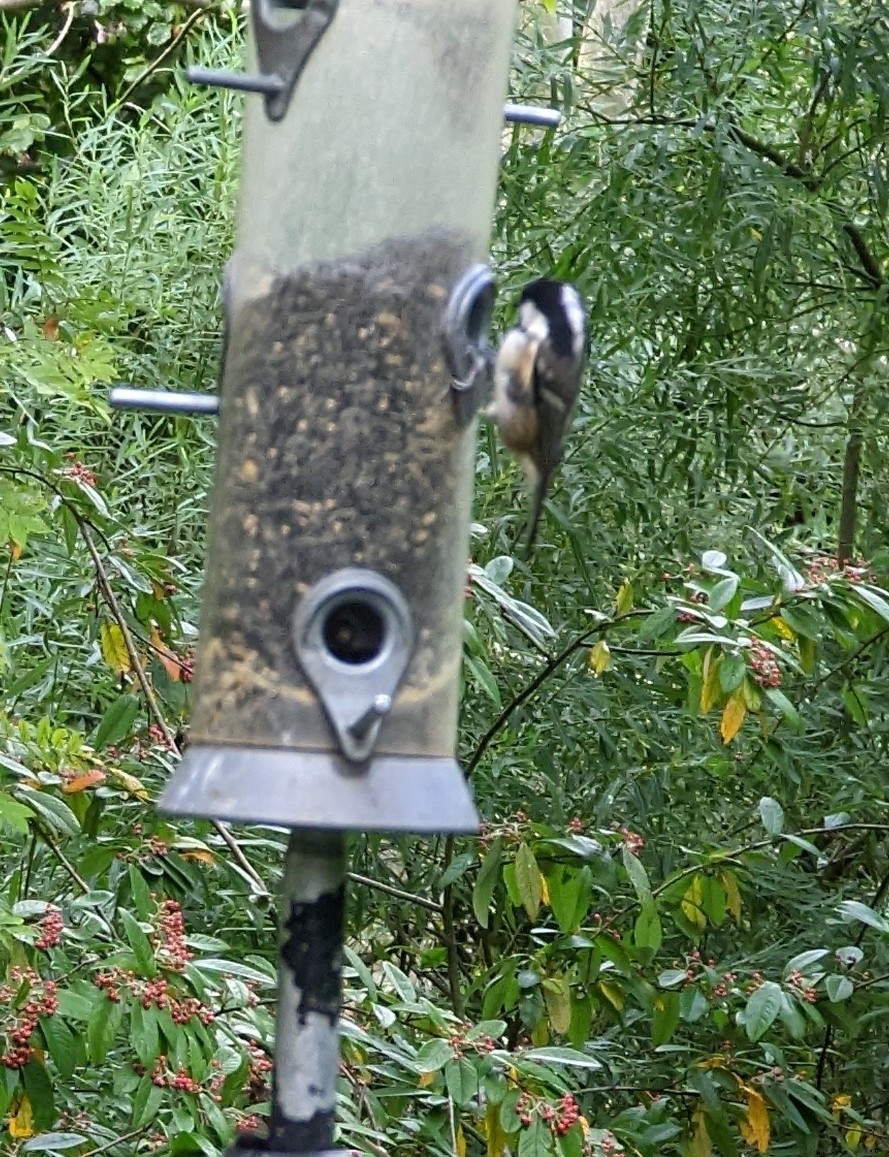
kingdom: Animalia
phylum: Chordata
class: Aves
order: Passeriformes
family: Paridae
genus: Periparus
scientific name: Periparus ater
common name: Coal tit
